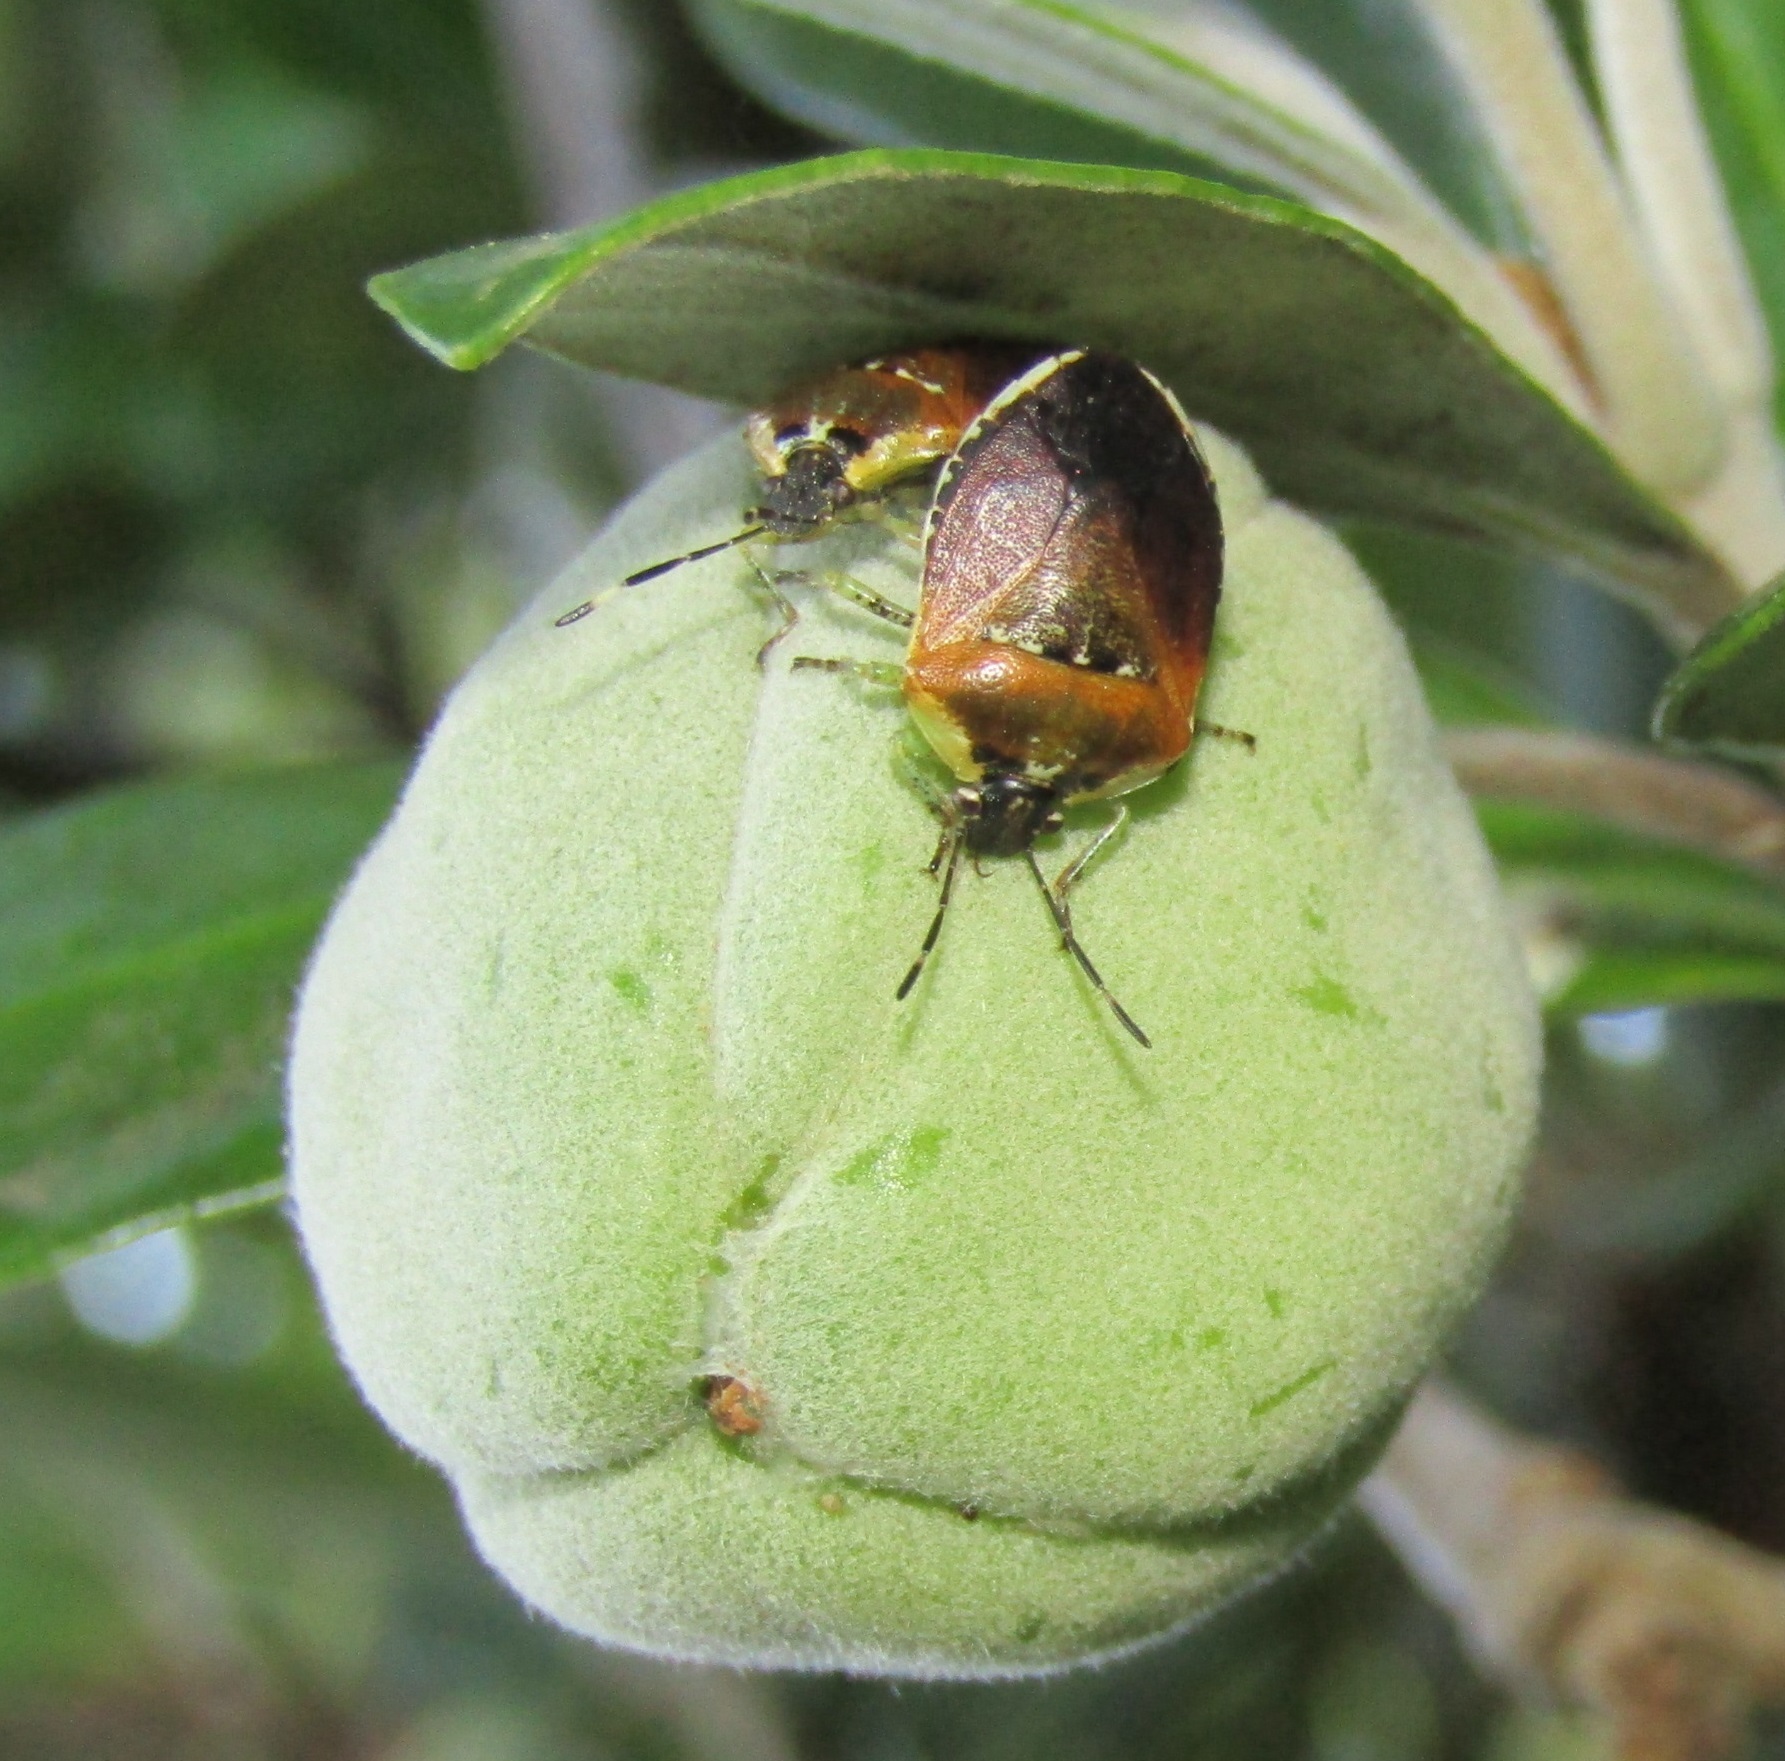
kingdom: Animalia
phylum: Arthropoda
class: Insecta
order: Hemiptera
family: Pentatomidae
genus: Monteithiella
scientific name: Monteithiella
